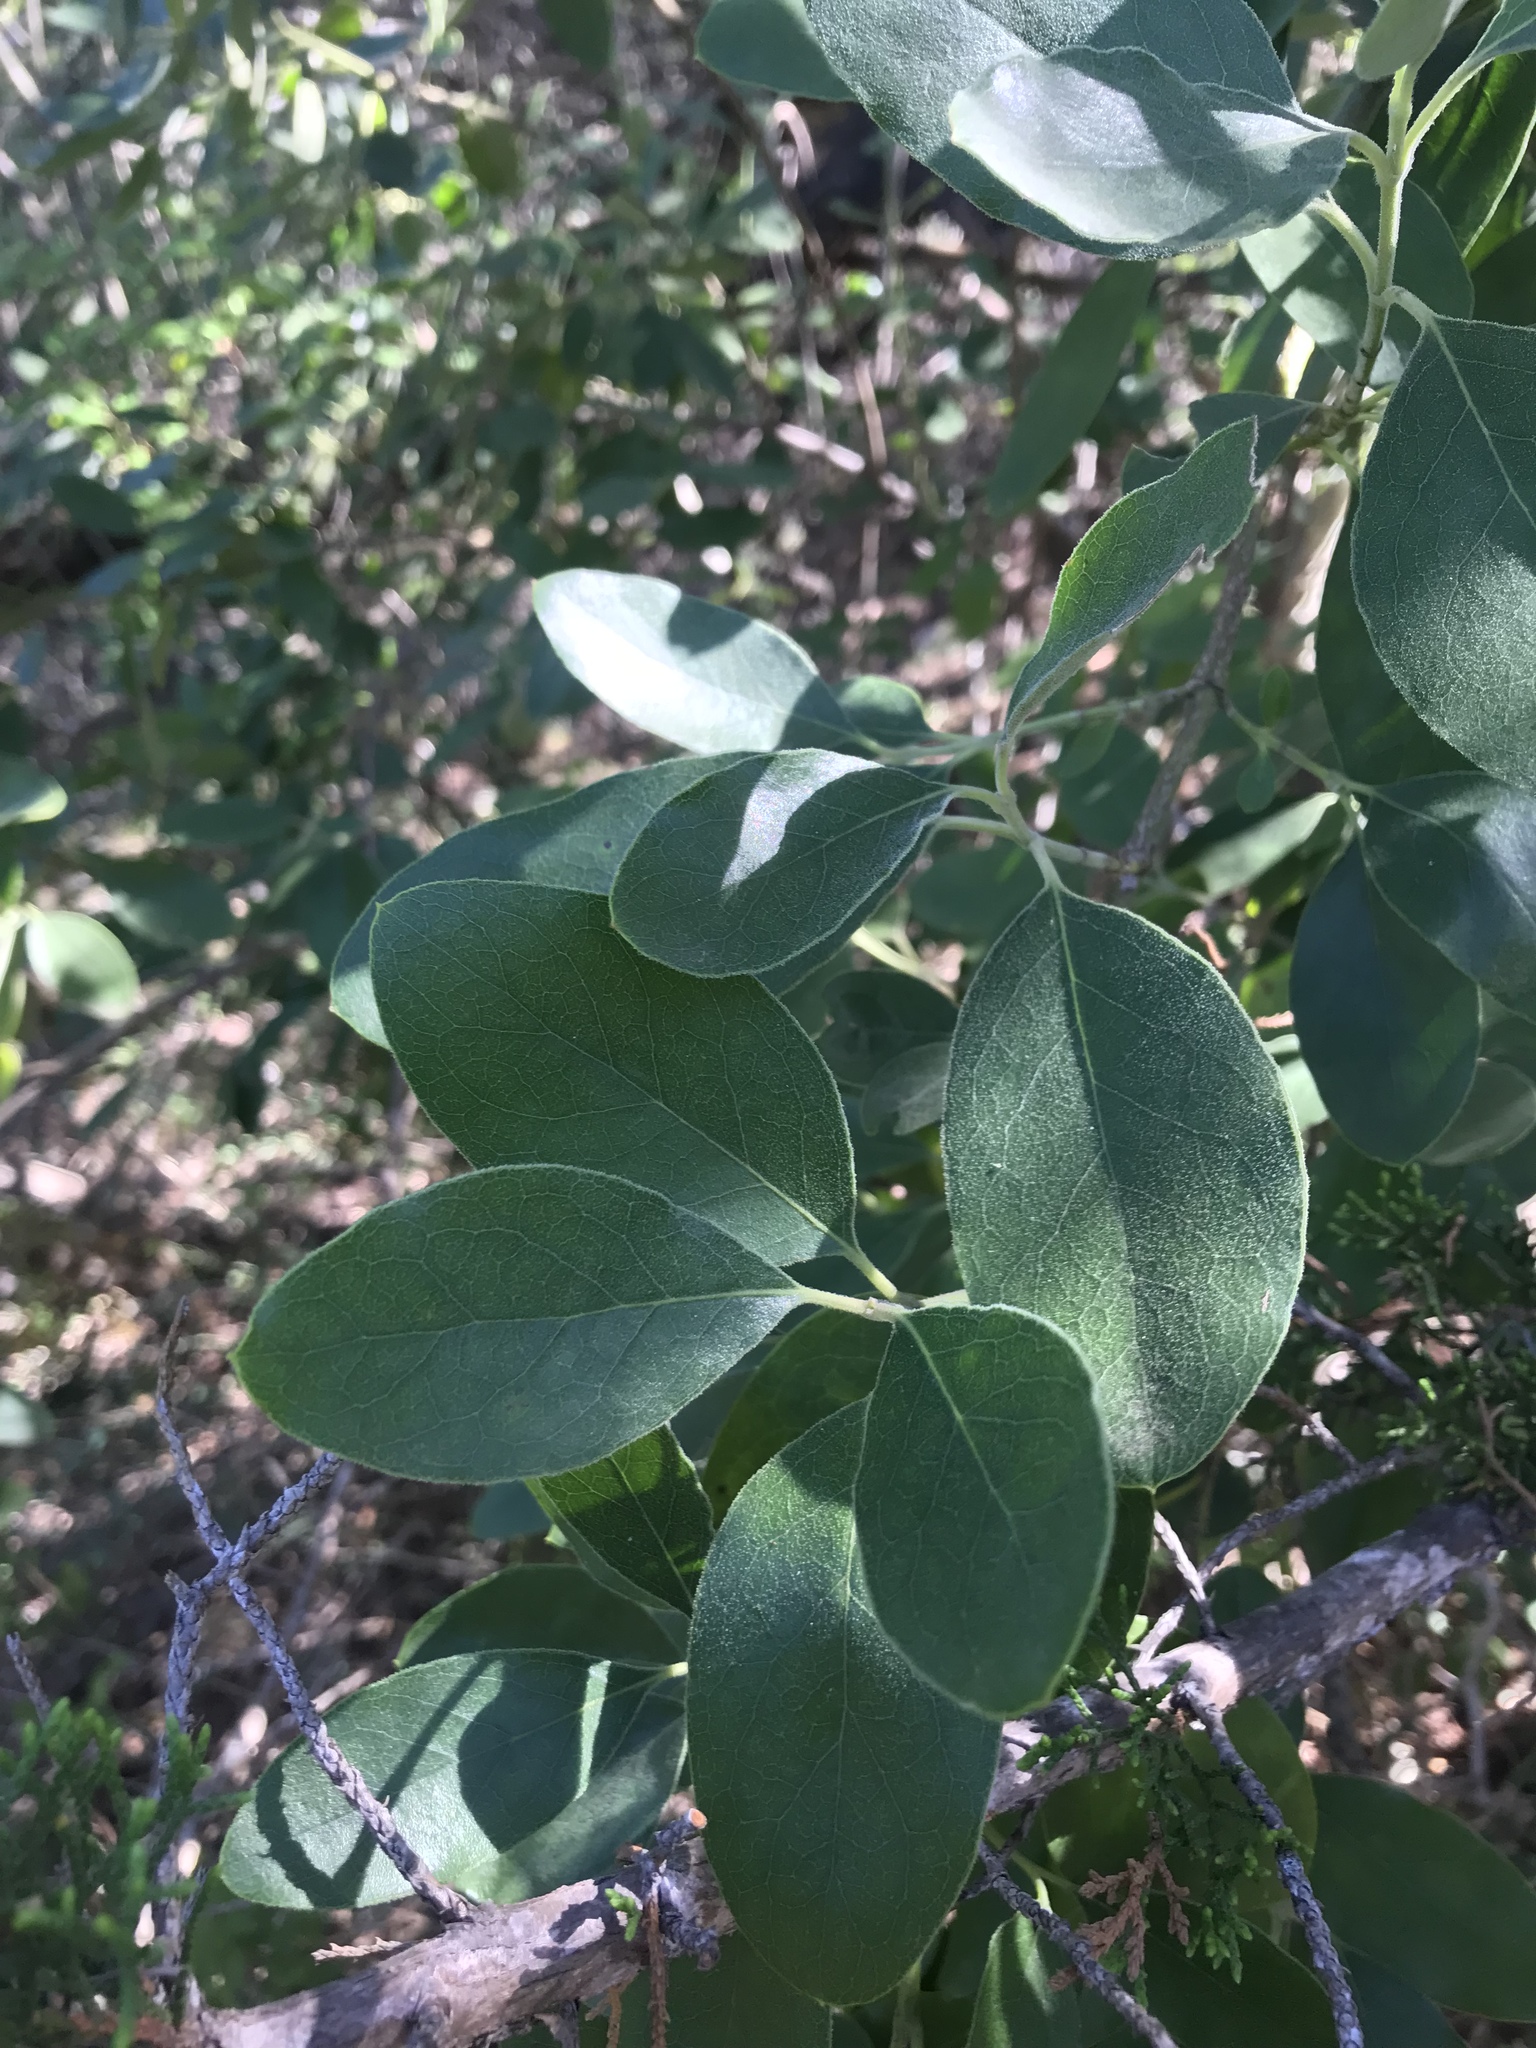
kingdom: Plantae
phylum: Tracheophyta
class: Magnoliopsida
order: Garryales
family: Garryaceae
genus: Garrya
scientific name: Garrya lindheimeri
